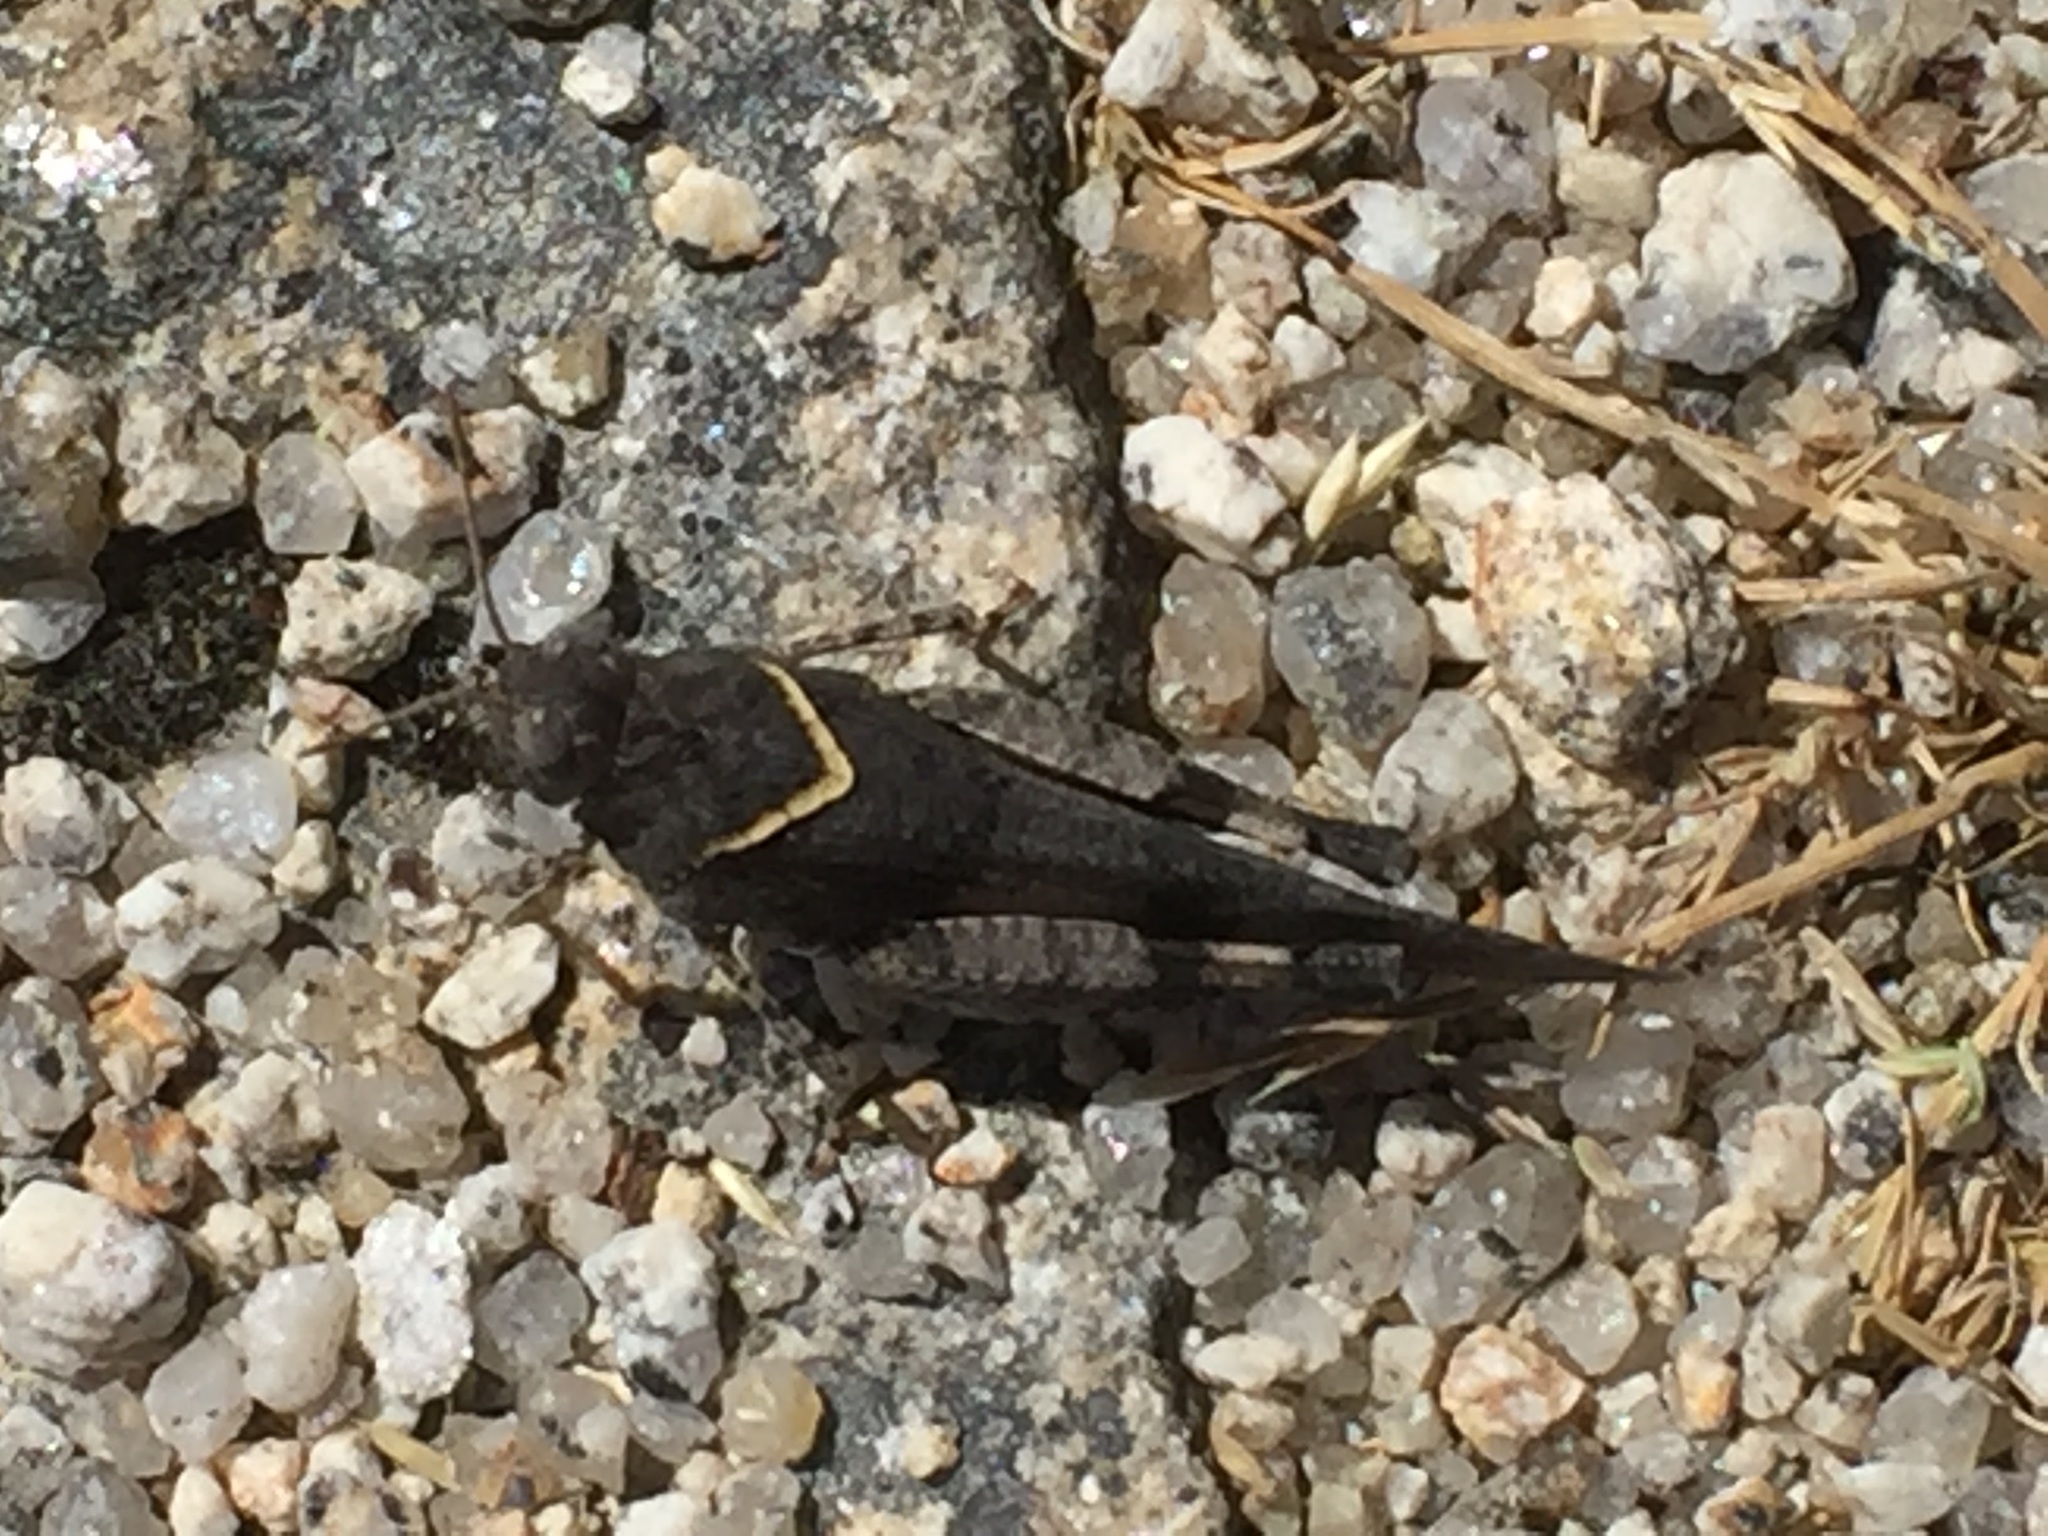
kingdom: Animalia
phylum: Arthropoda
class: Insecta
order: Orthoptera
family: Acrididae
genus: Oedipoda
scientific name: Oedipoda caerulescens
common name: Blue-winged grasshopper
